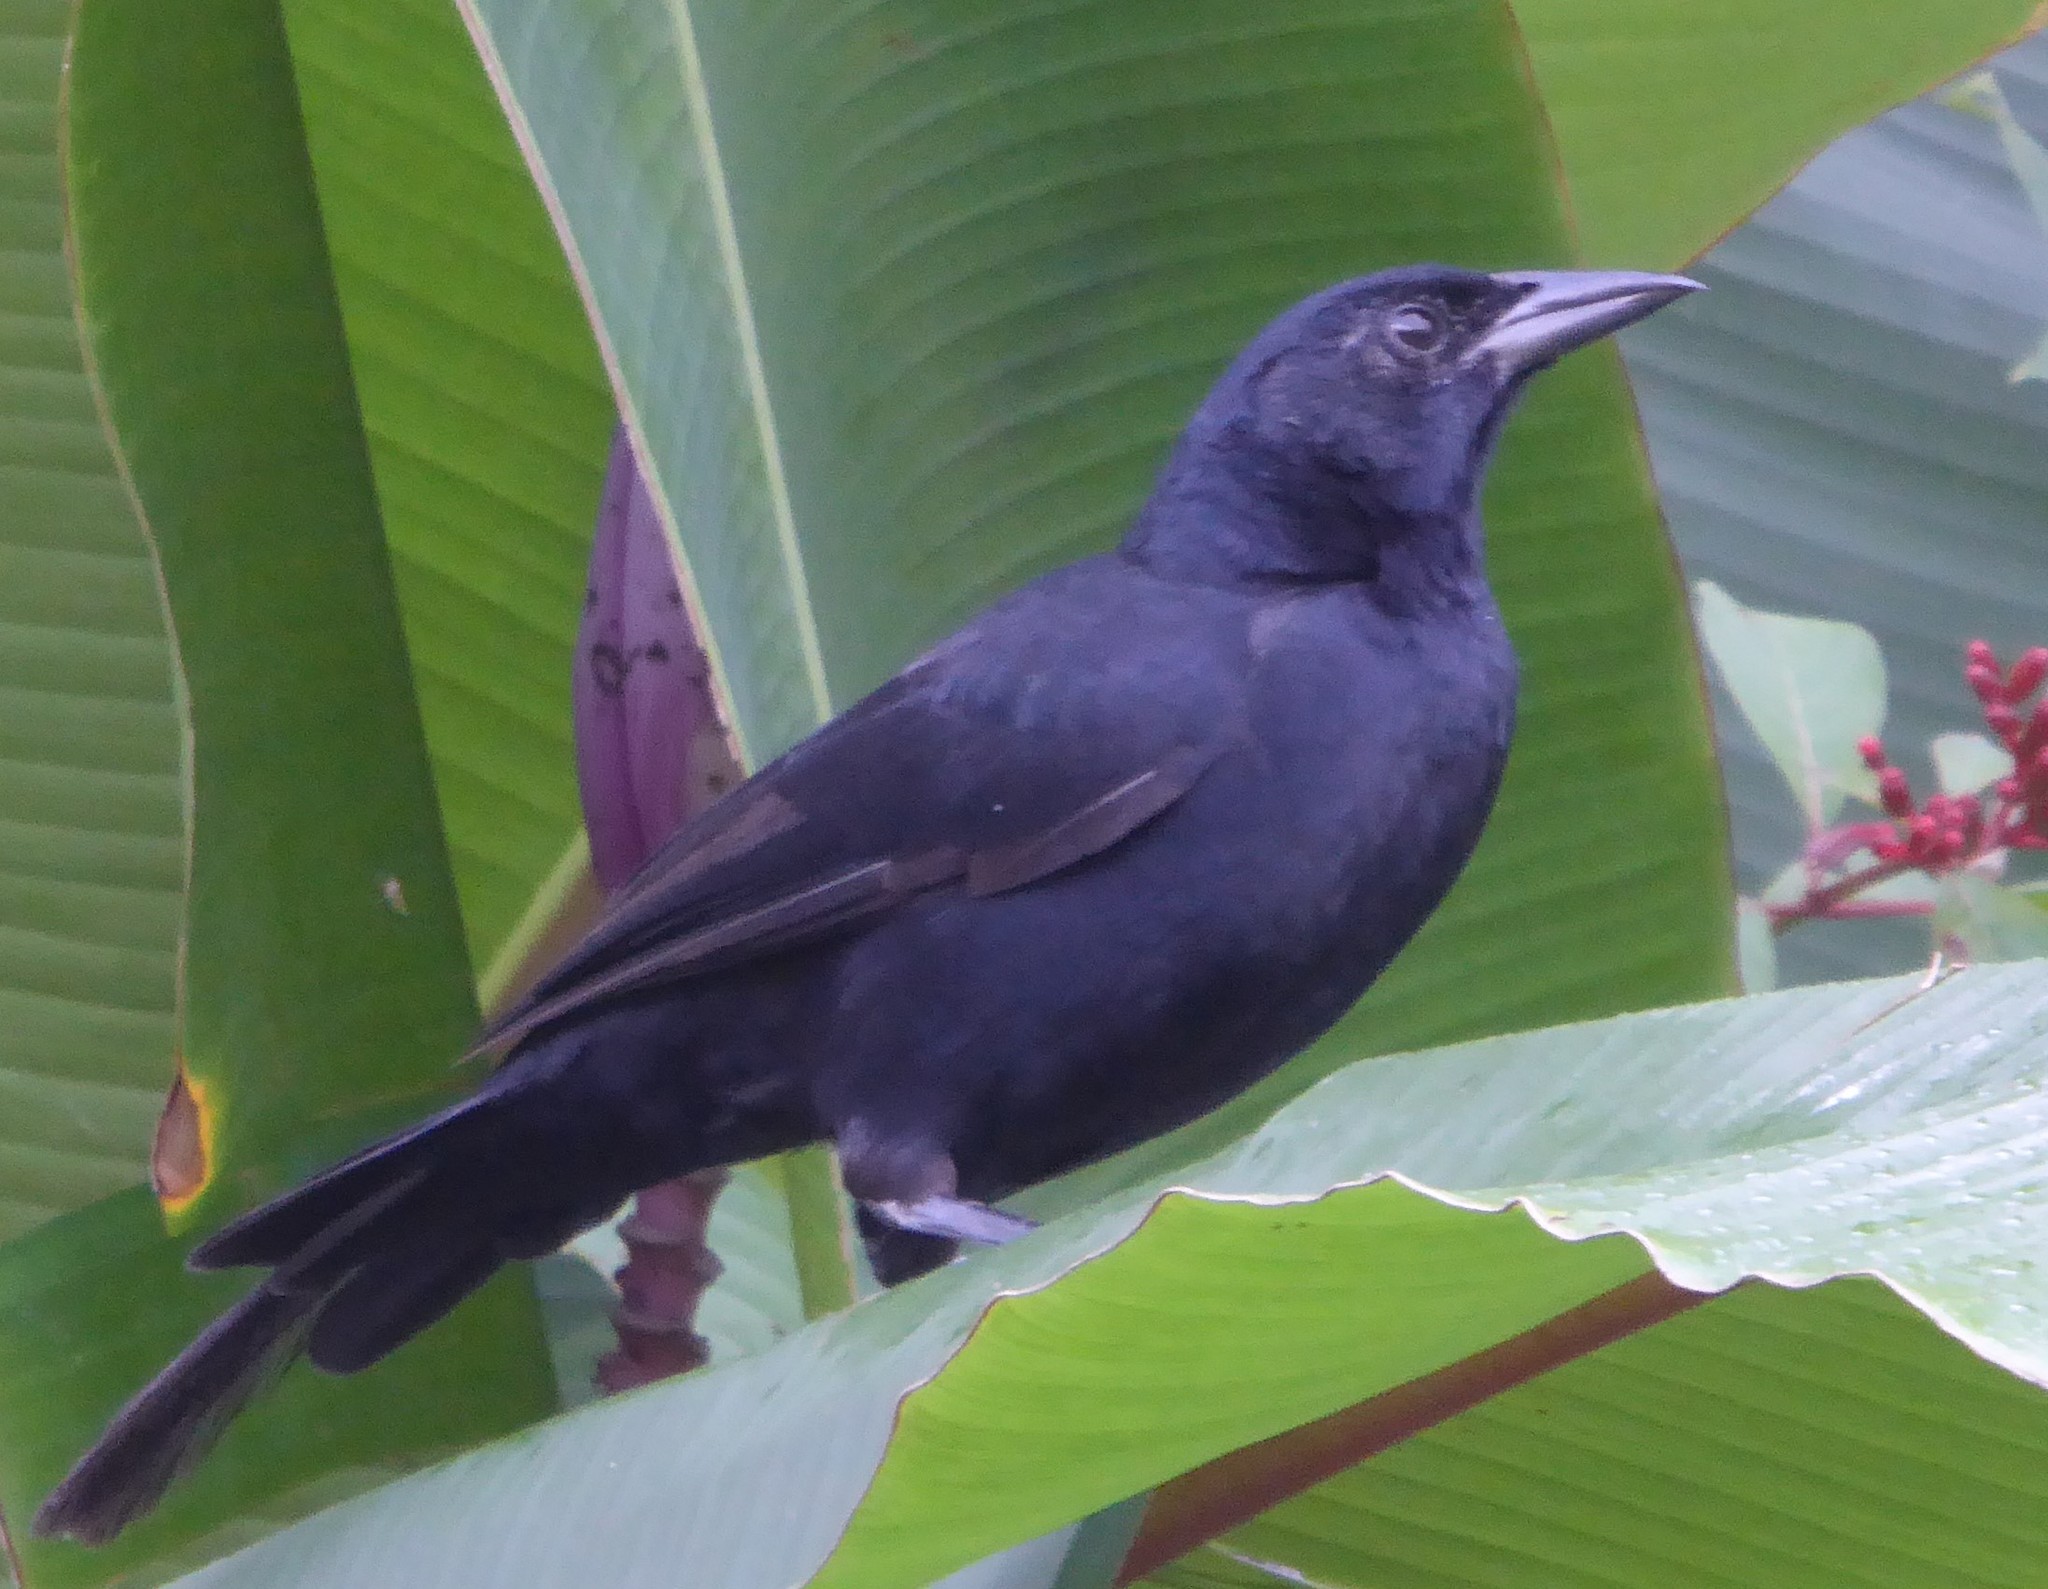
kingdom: Animalia
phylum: Chordata
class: Aves
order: Passeriformes
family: Icteridae
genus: Dives
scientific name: Dives dives
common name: Melodious blackbird
